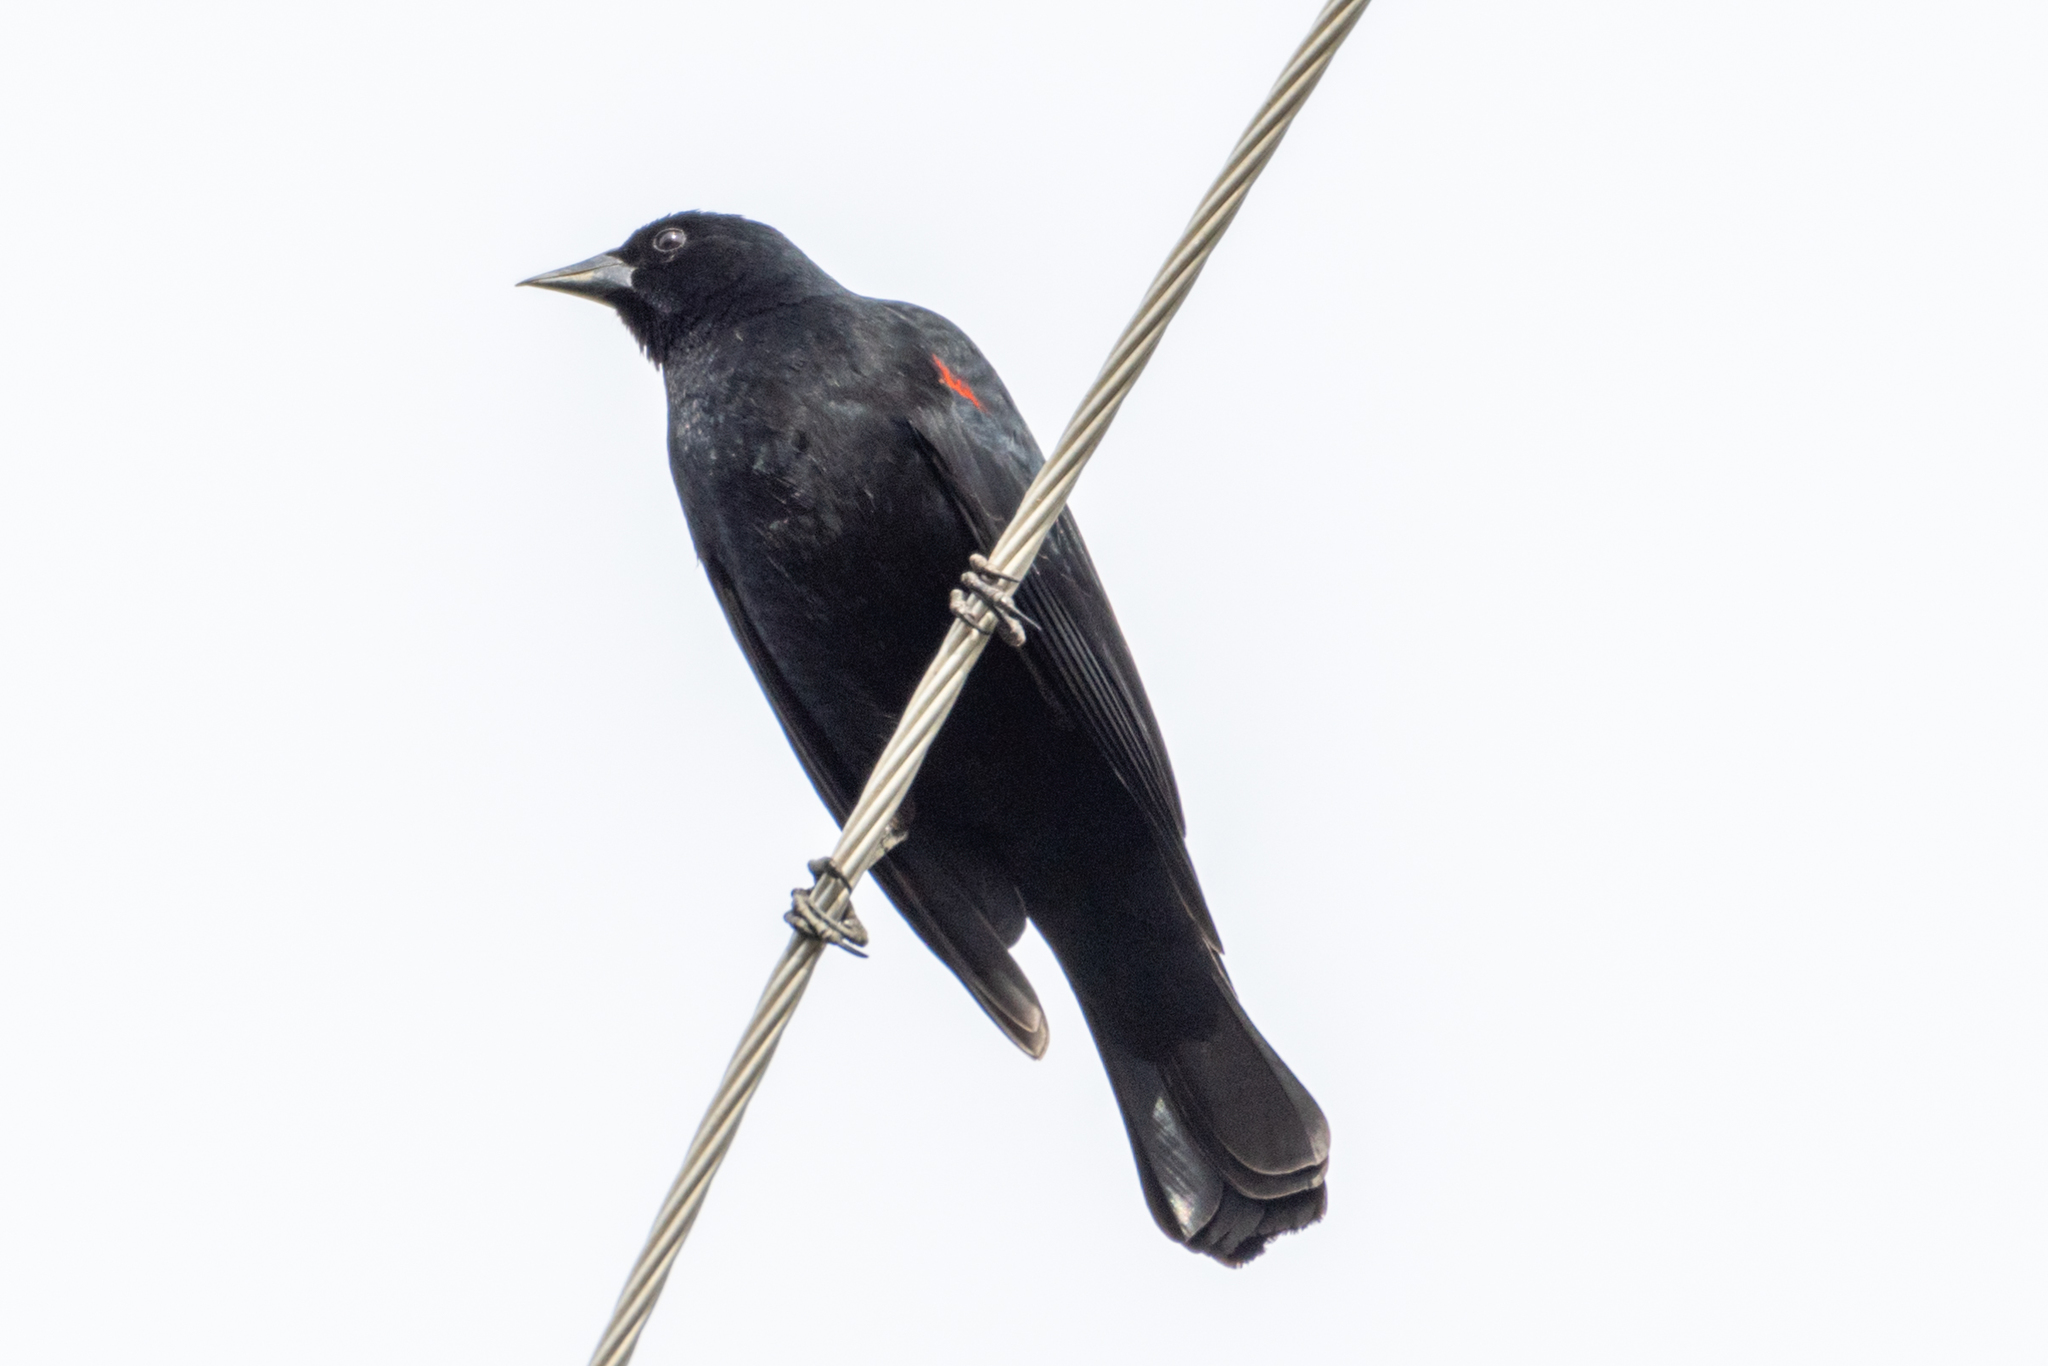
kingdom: Animalia
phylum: Chordata
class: Aves
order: Passeriformes
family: Icteridae
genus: Agelaius
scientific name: Agelaius phoeniceus
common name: Red-winged blackbird
